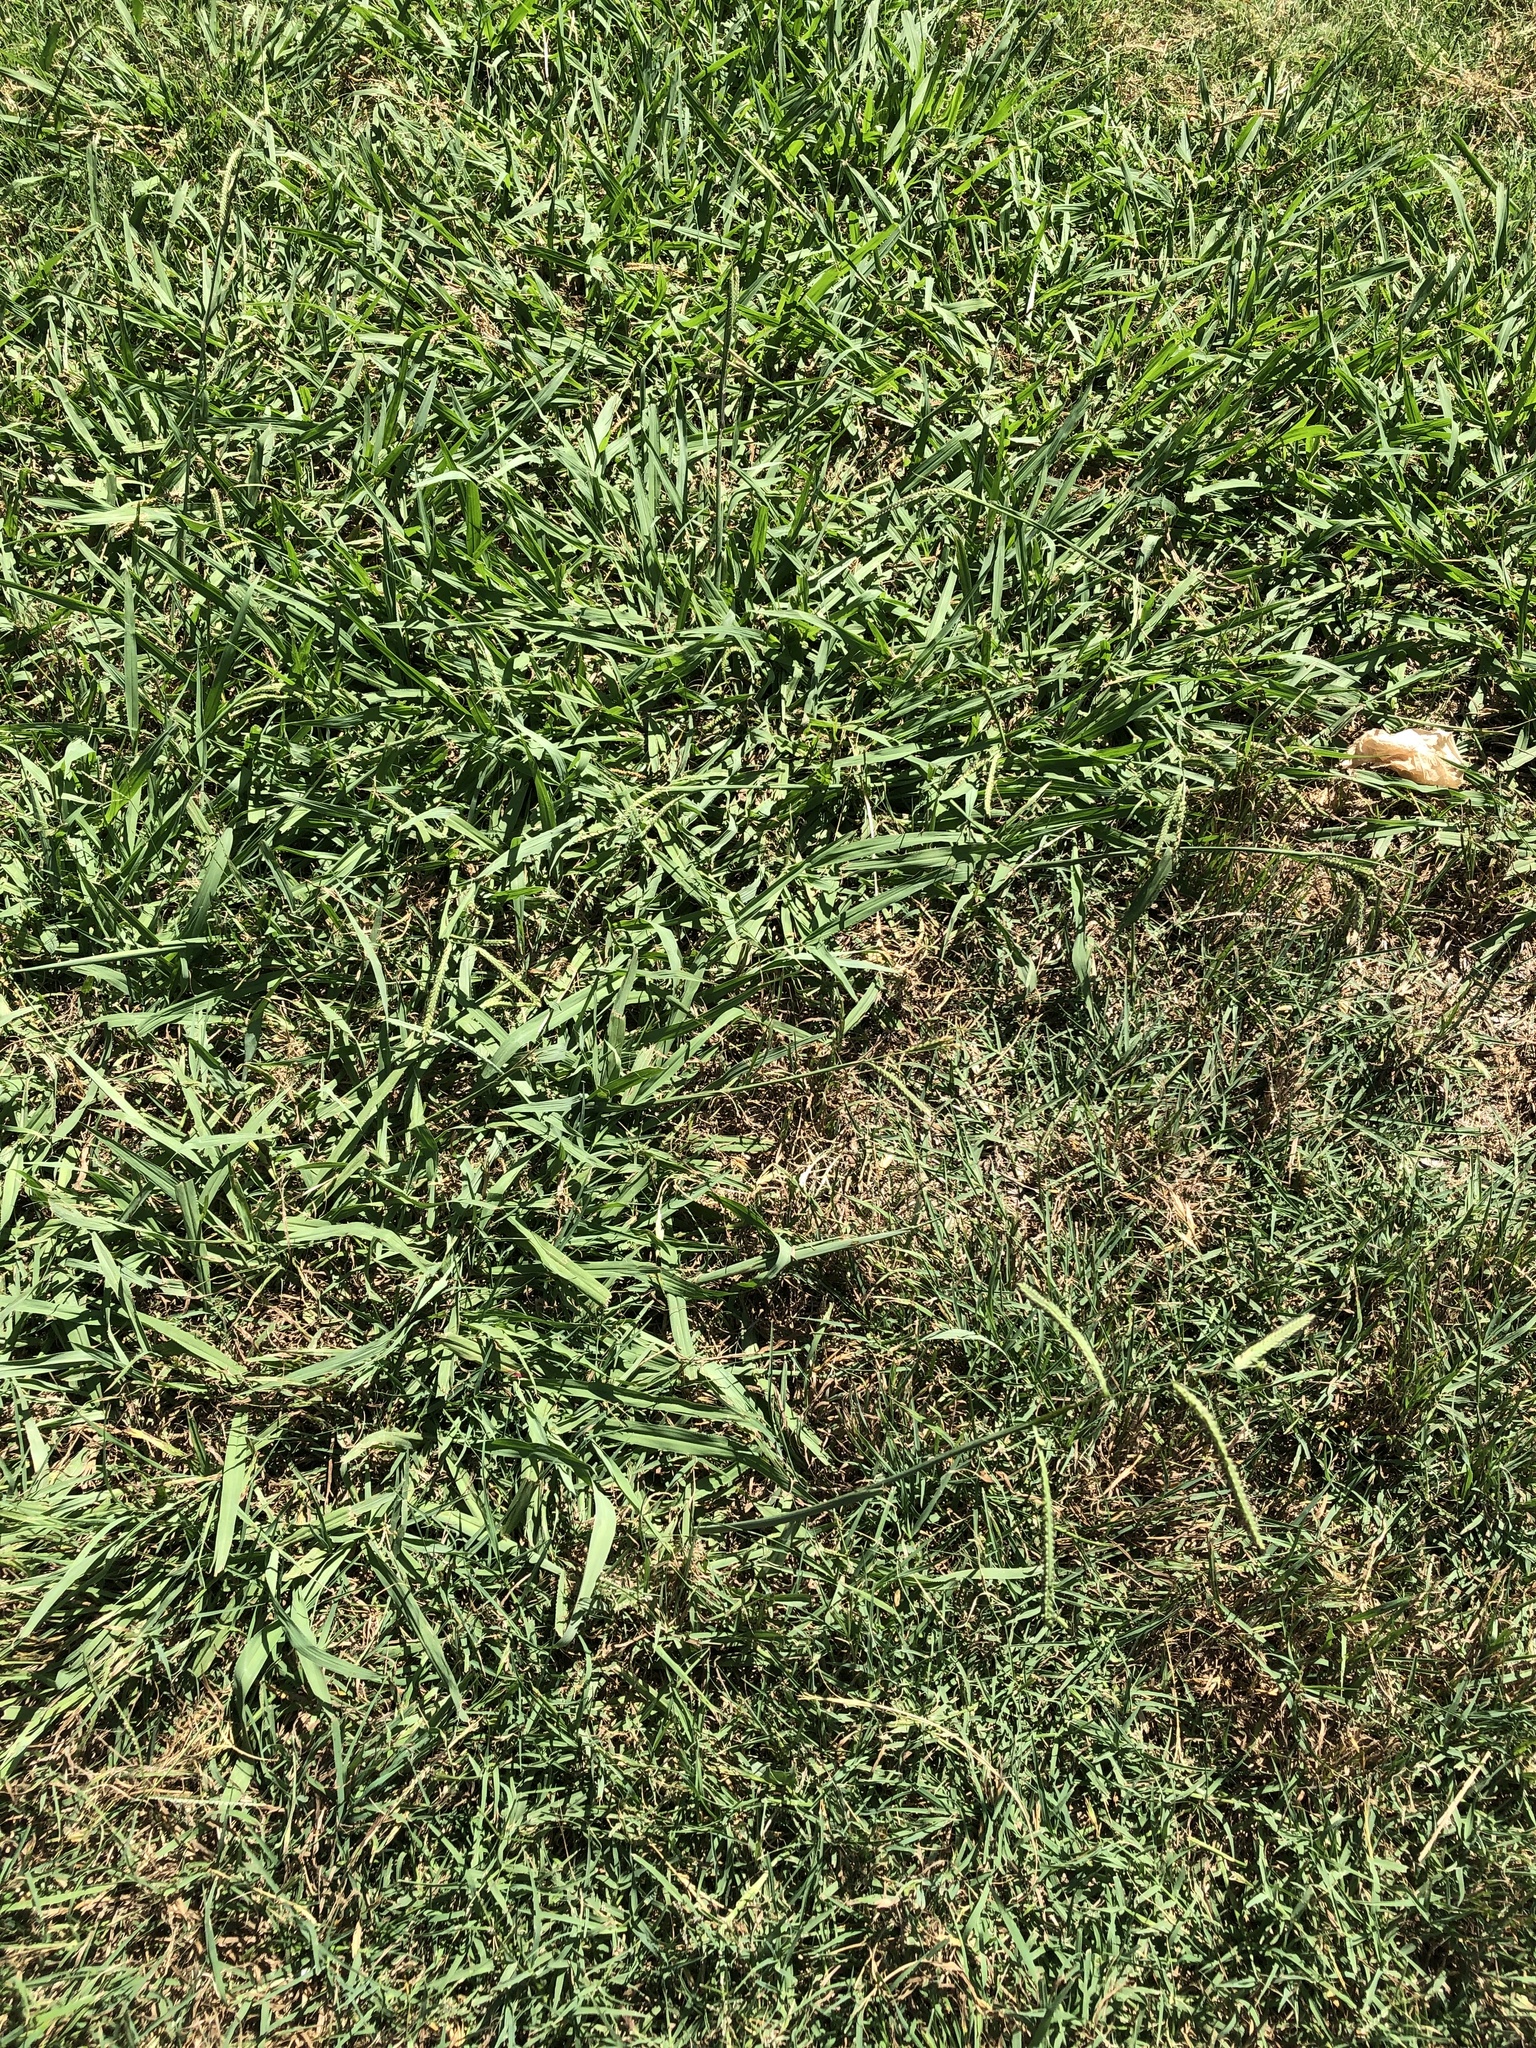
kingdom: Plantae
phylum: Tracheophyta
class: Liliopsida
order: Poales
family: Poaceae
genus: Paspalum
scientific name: Paspalum dilatatum
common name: Dallisgrass
